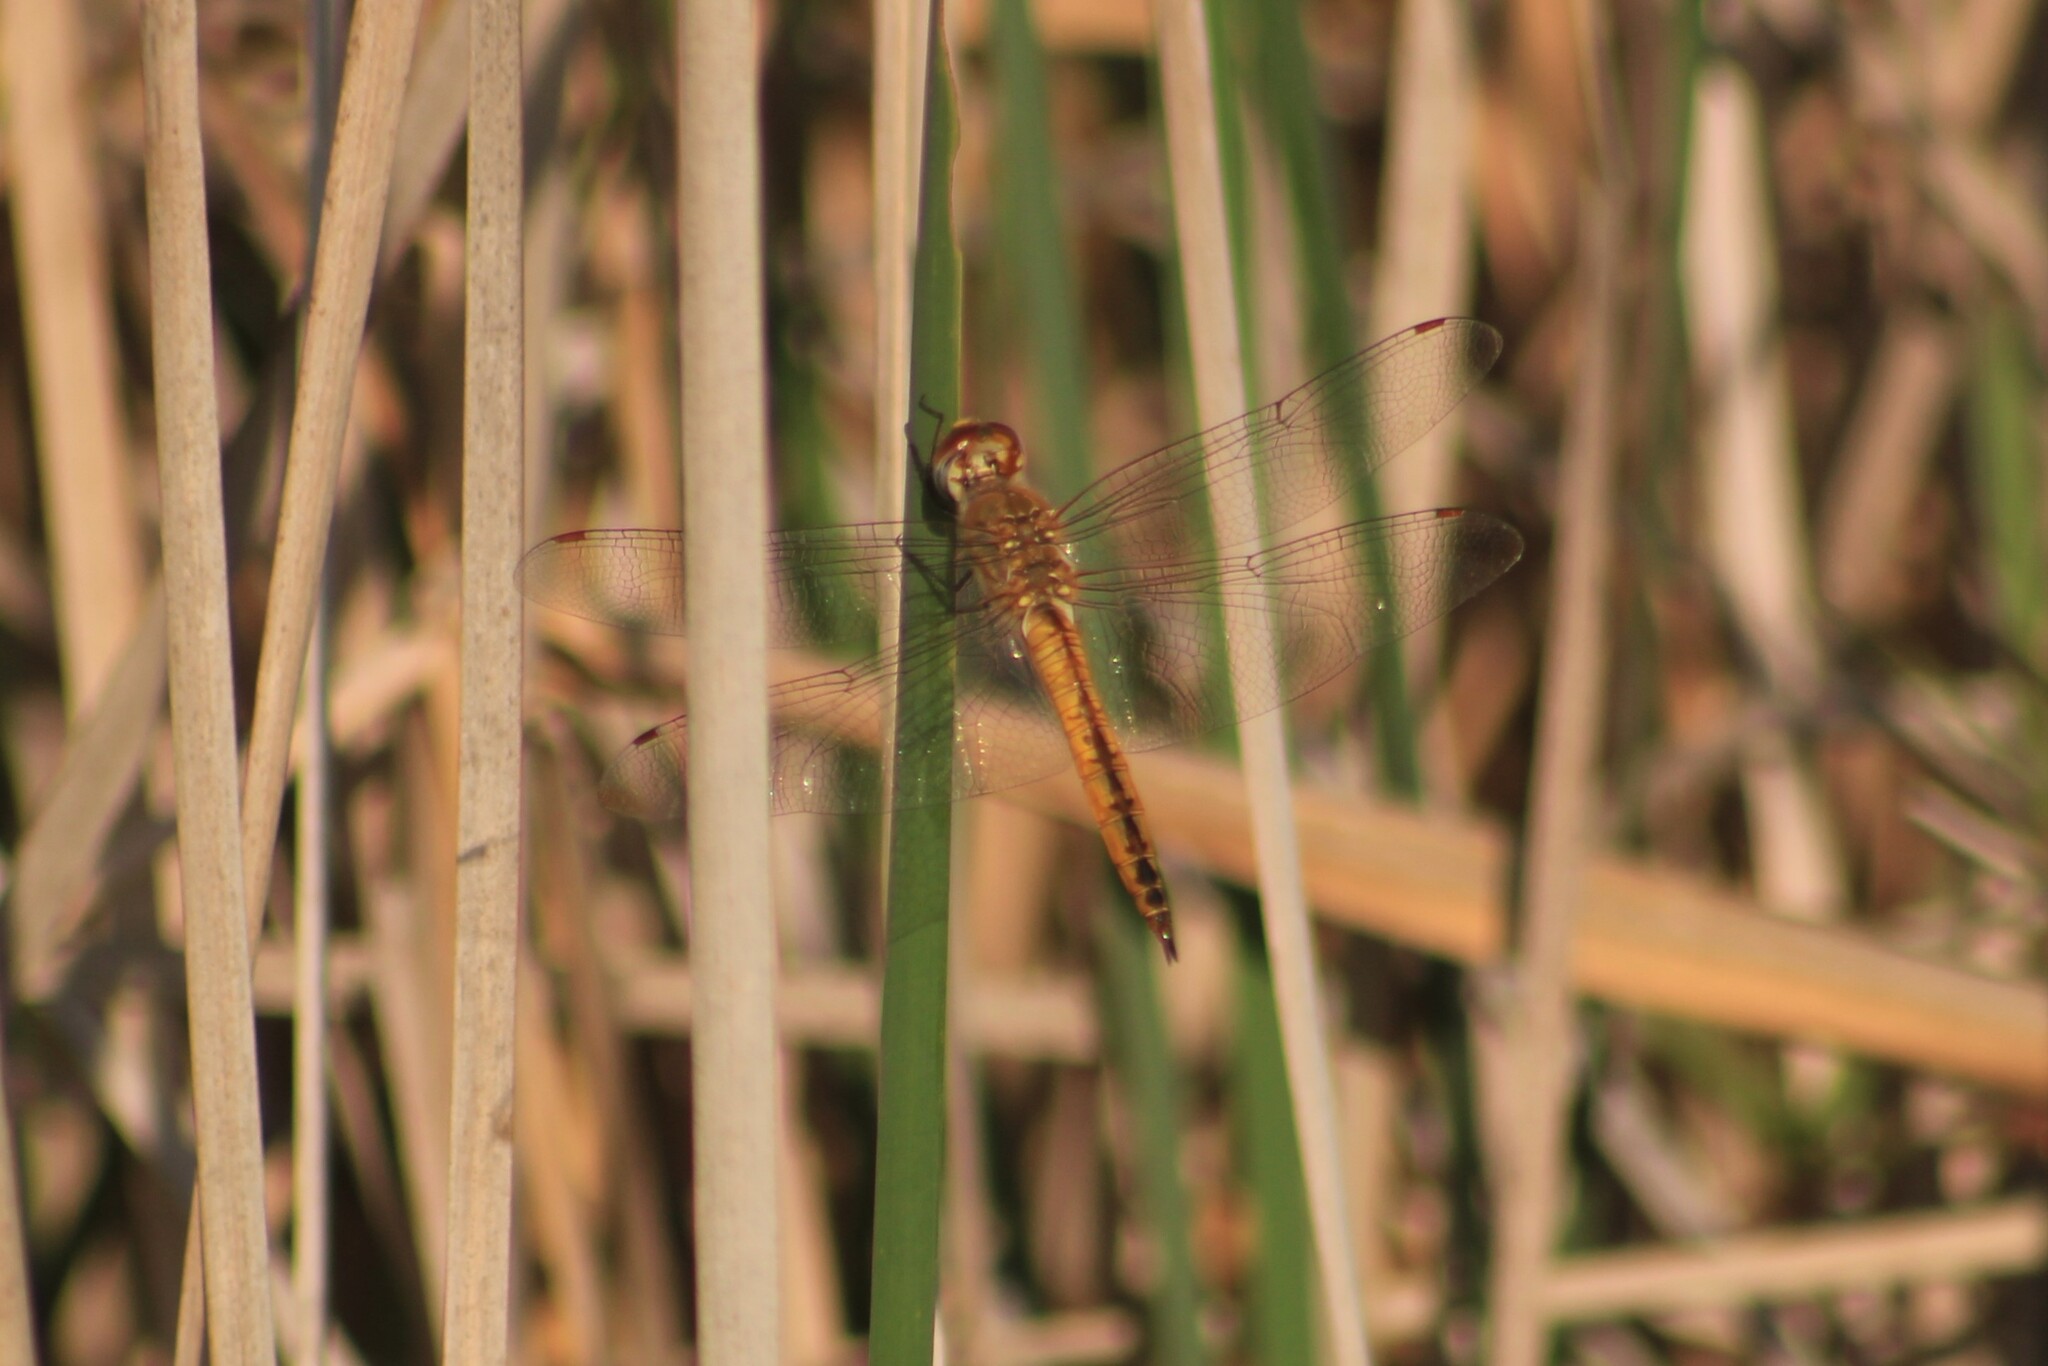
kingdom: Animalia
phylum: Arthropoda
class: Insecta
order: Odonata
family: Libellulidae
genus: Pantala
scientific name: Pantala flavescens
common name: Wandering glider
